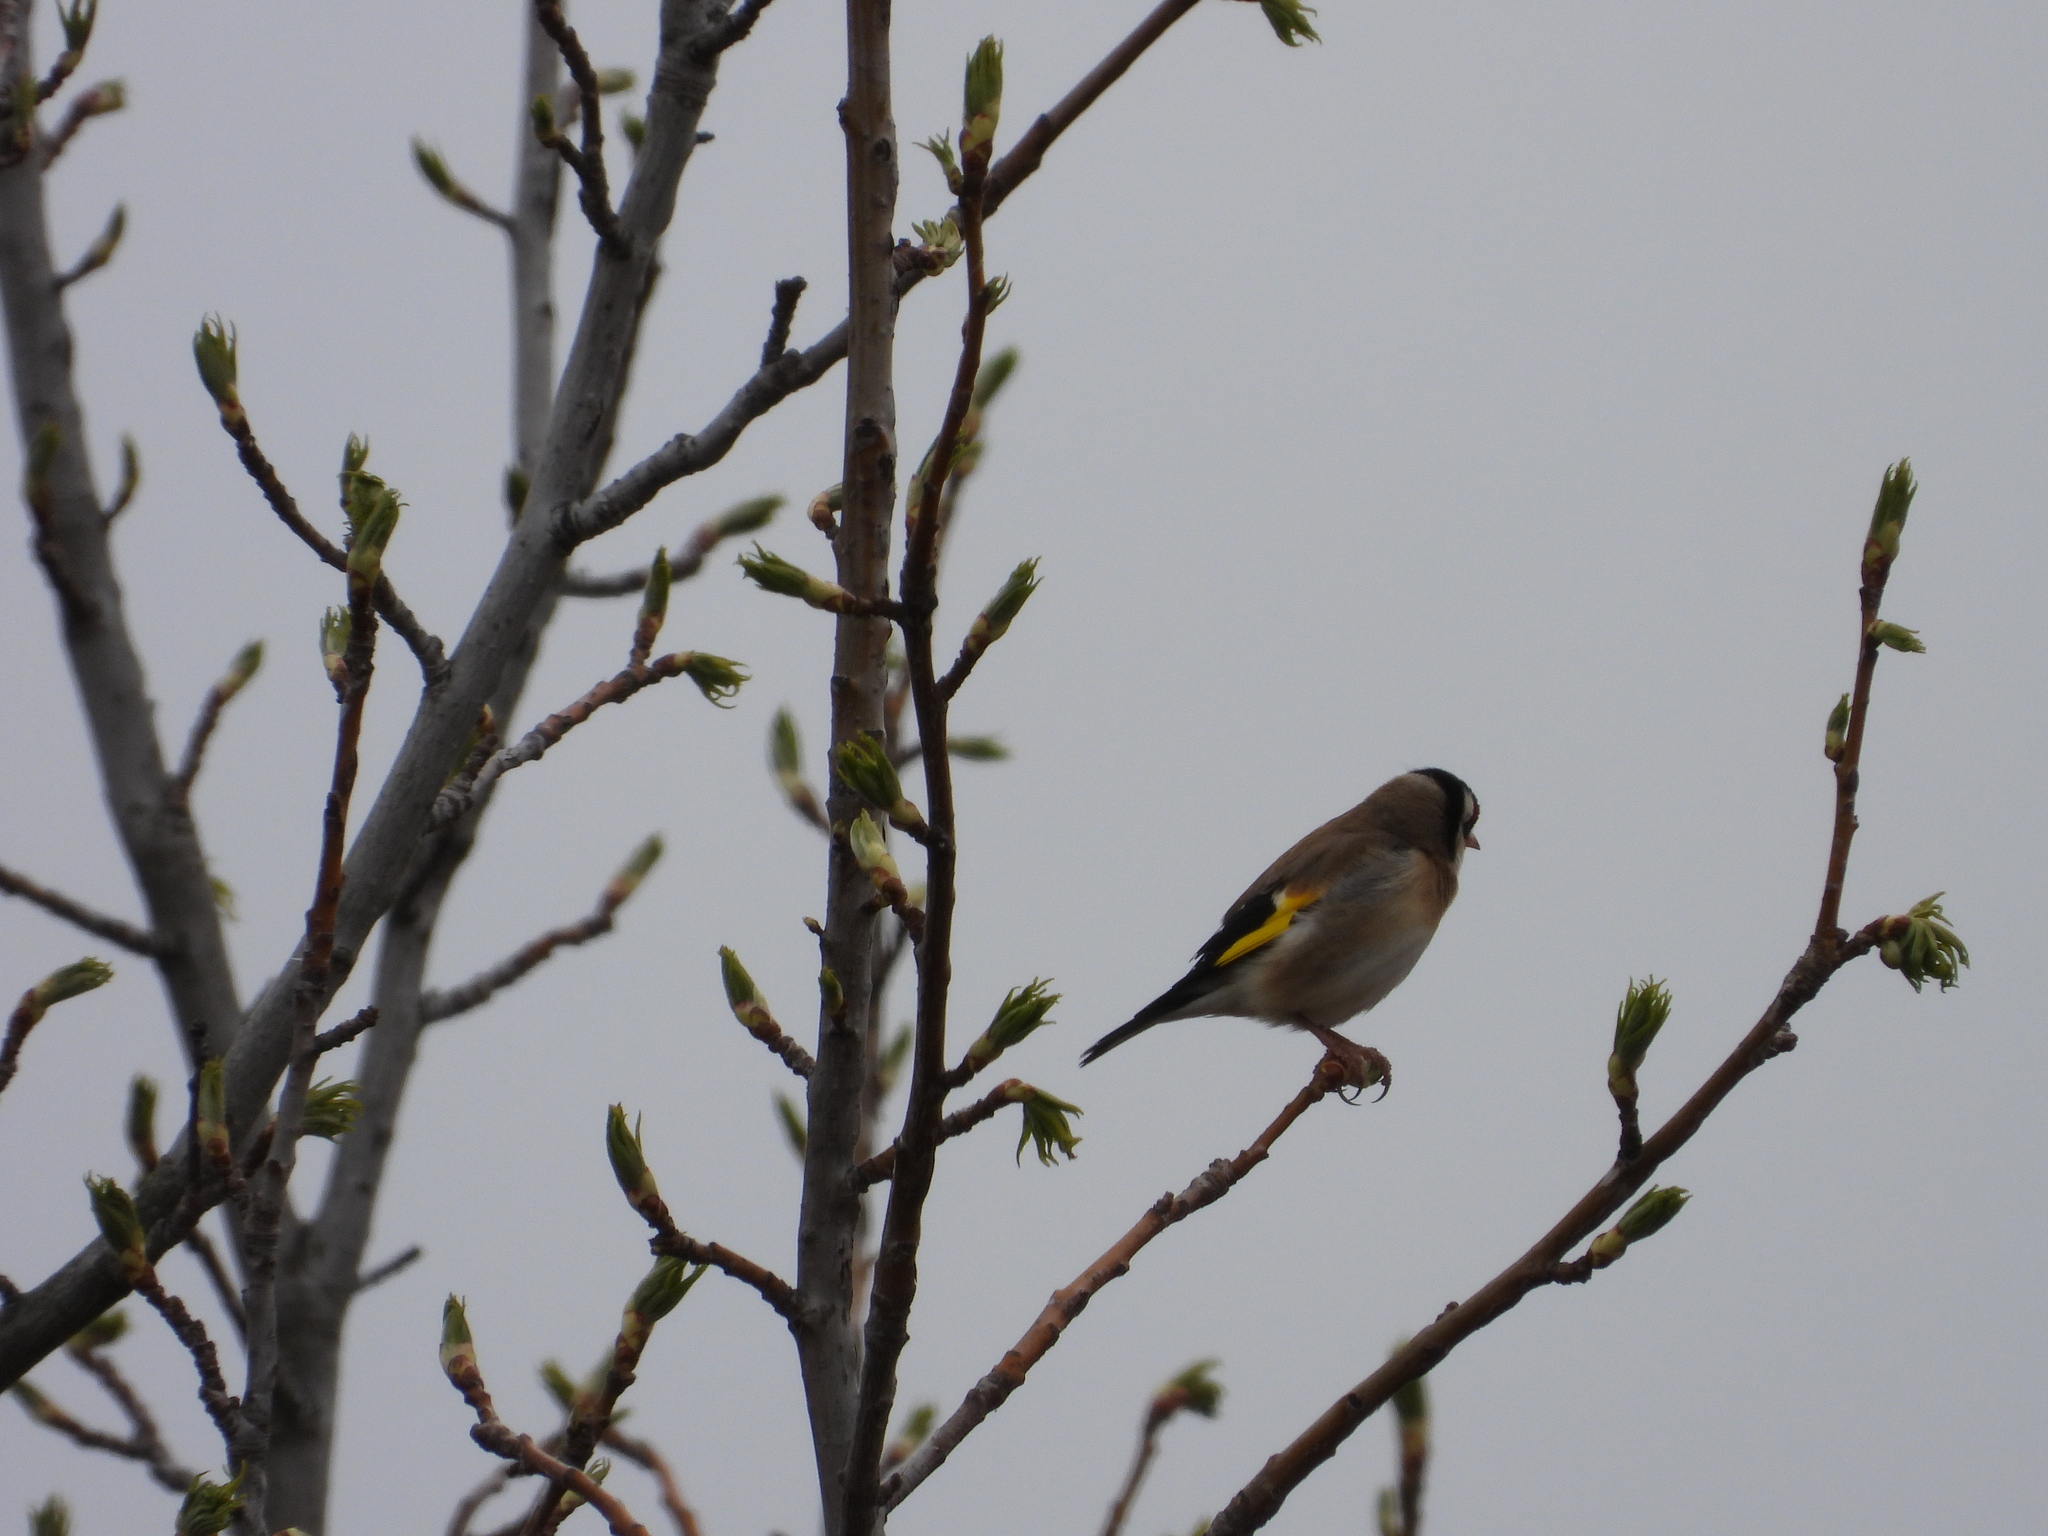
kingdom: Animalia
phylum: Chordata
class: Aves
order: Passeriformes
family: Fringillidae
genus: Carduelis
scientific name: Carduelis carduelis
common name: European goldfinch
